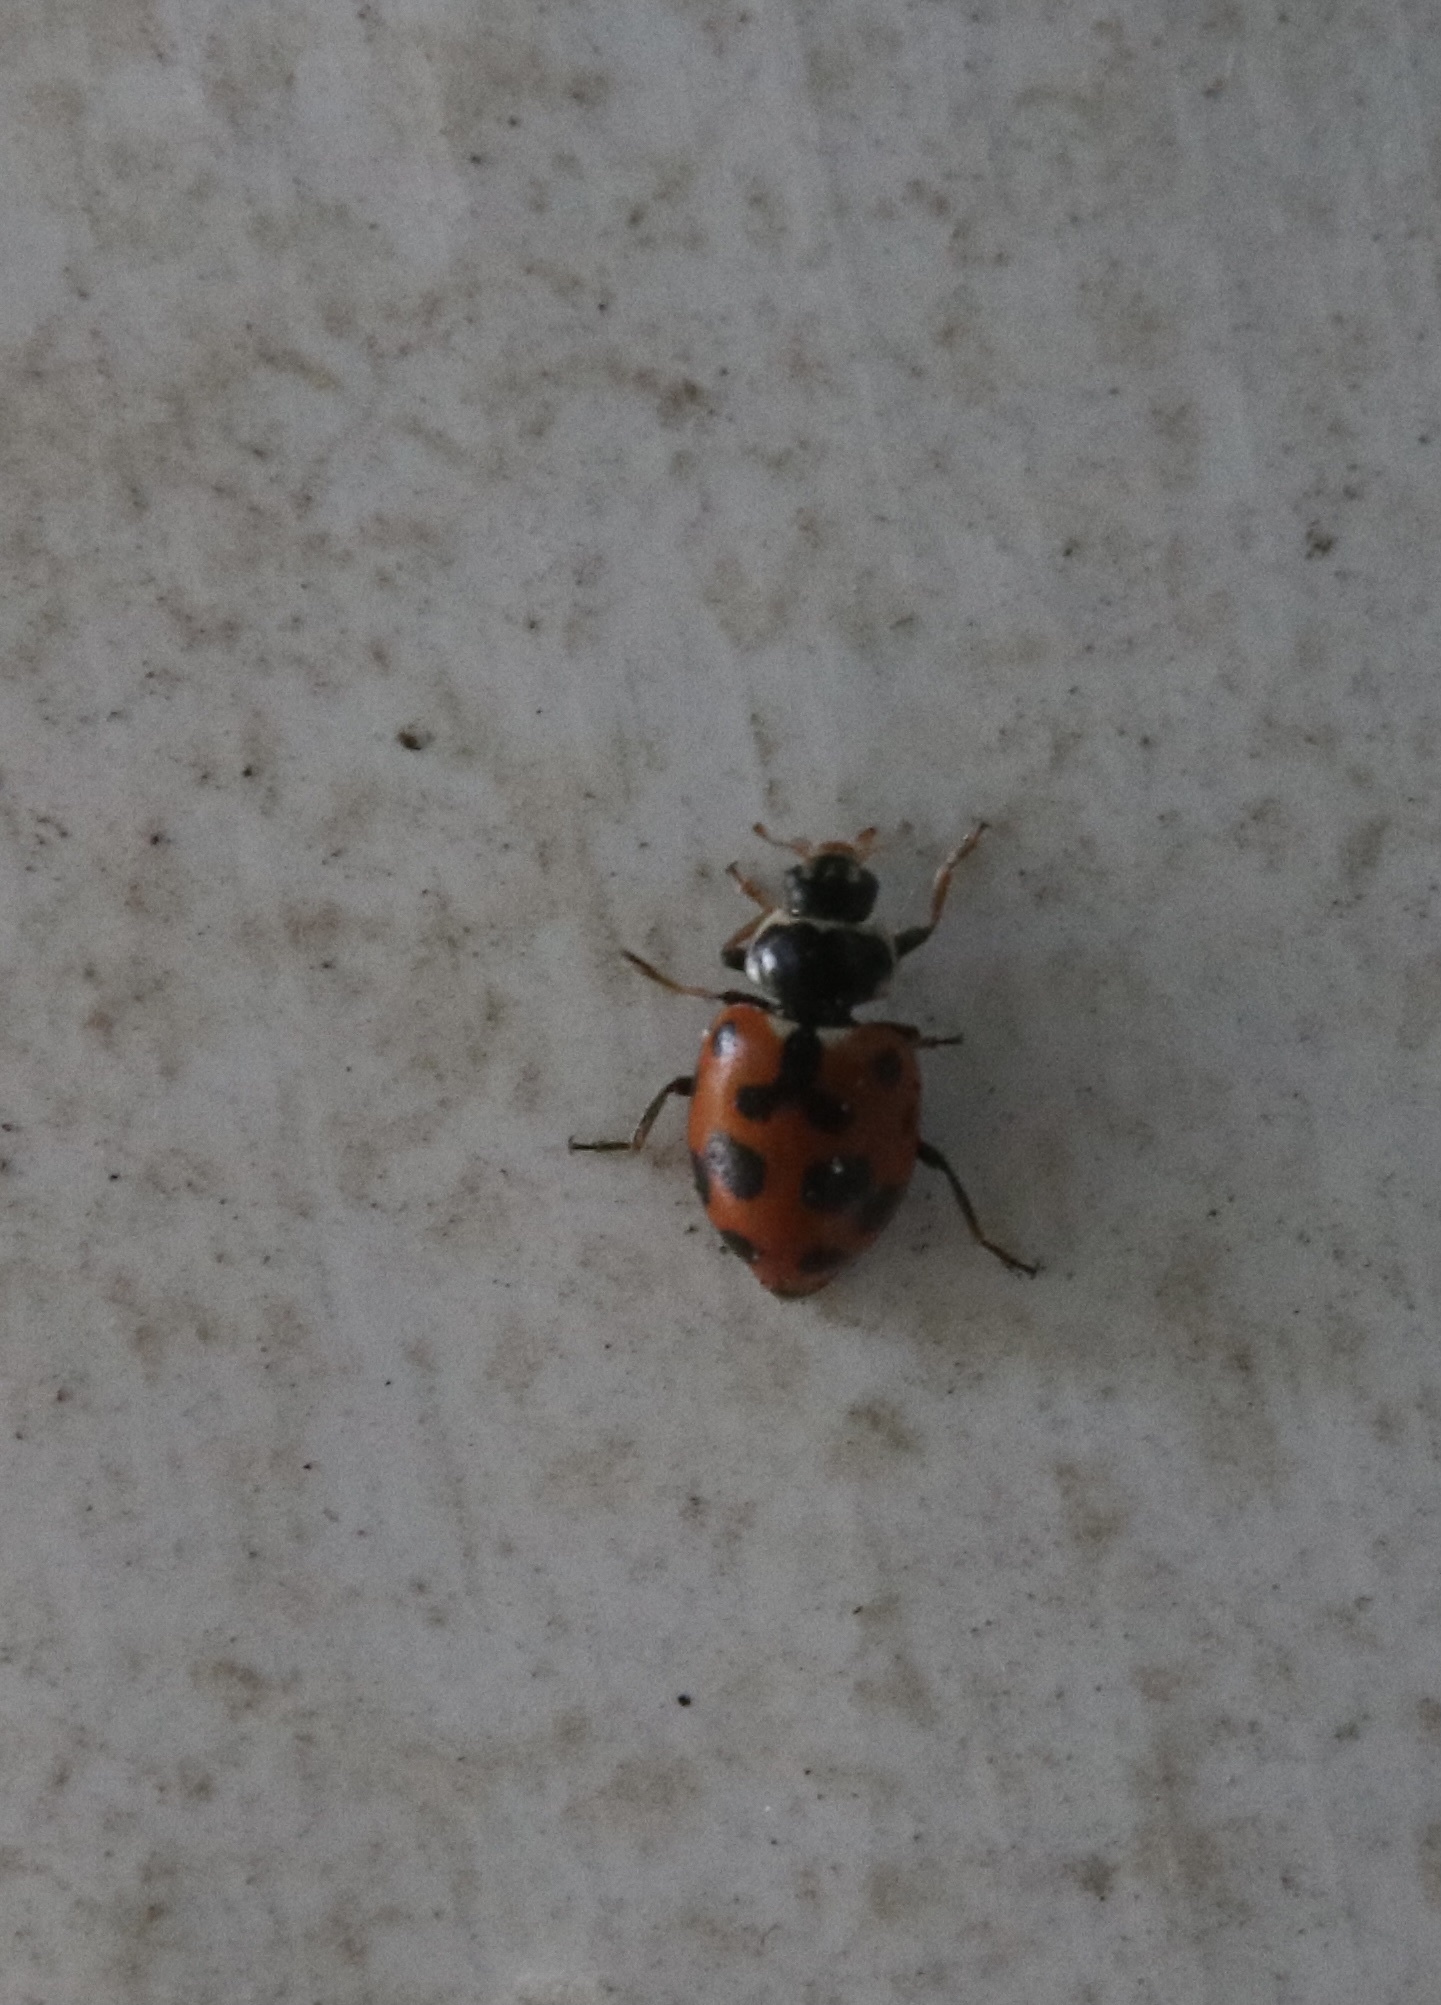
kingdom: Animalia
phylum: Arthropoda
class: Insecta
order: Coleoptera
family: Coccinellidae
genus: Hippodamia
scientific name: Hippodamia variegata
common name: Ladybird beetle
